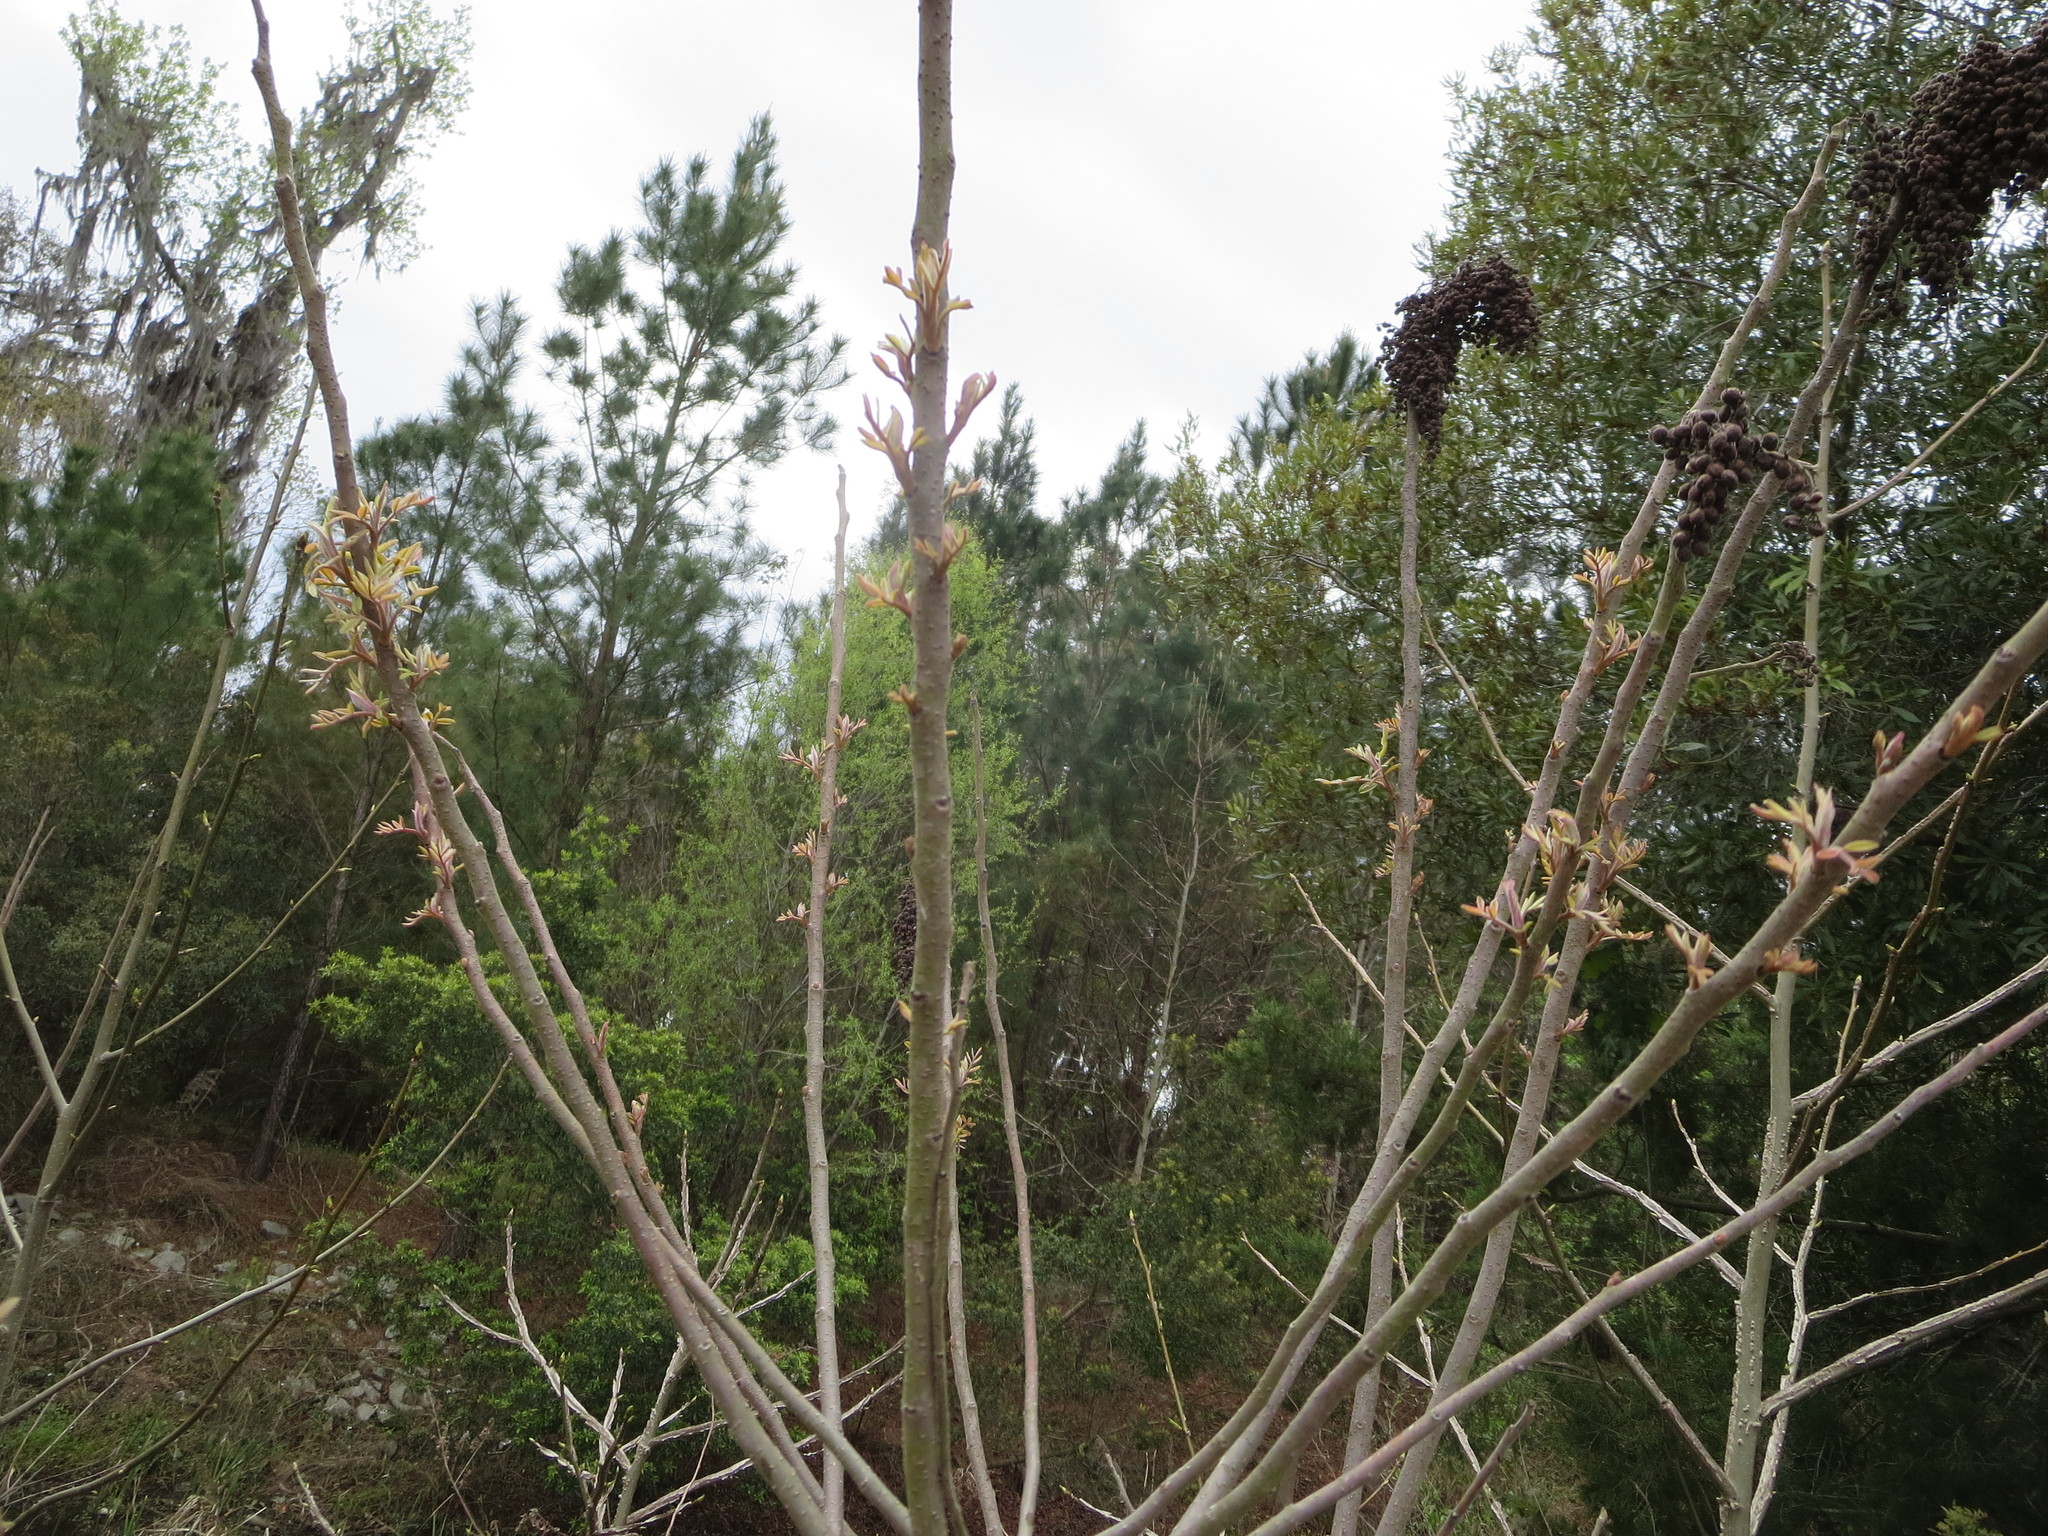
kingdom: Plantae
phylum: Tracheophyta
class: Magnoliopsida
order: Sapindales
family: Anacardiaceae
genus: Rhus
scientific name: Rhus copallina
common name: Shining sumac
